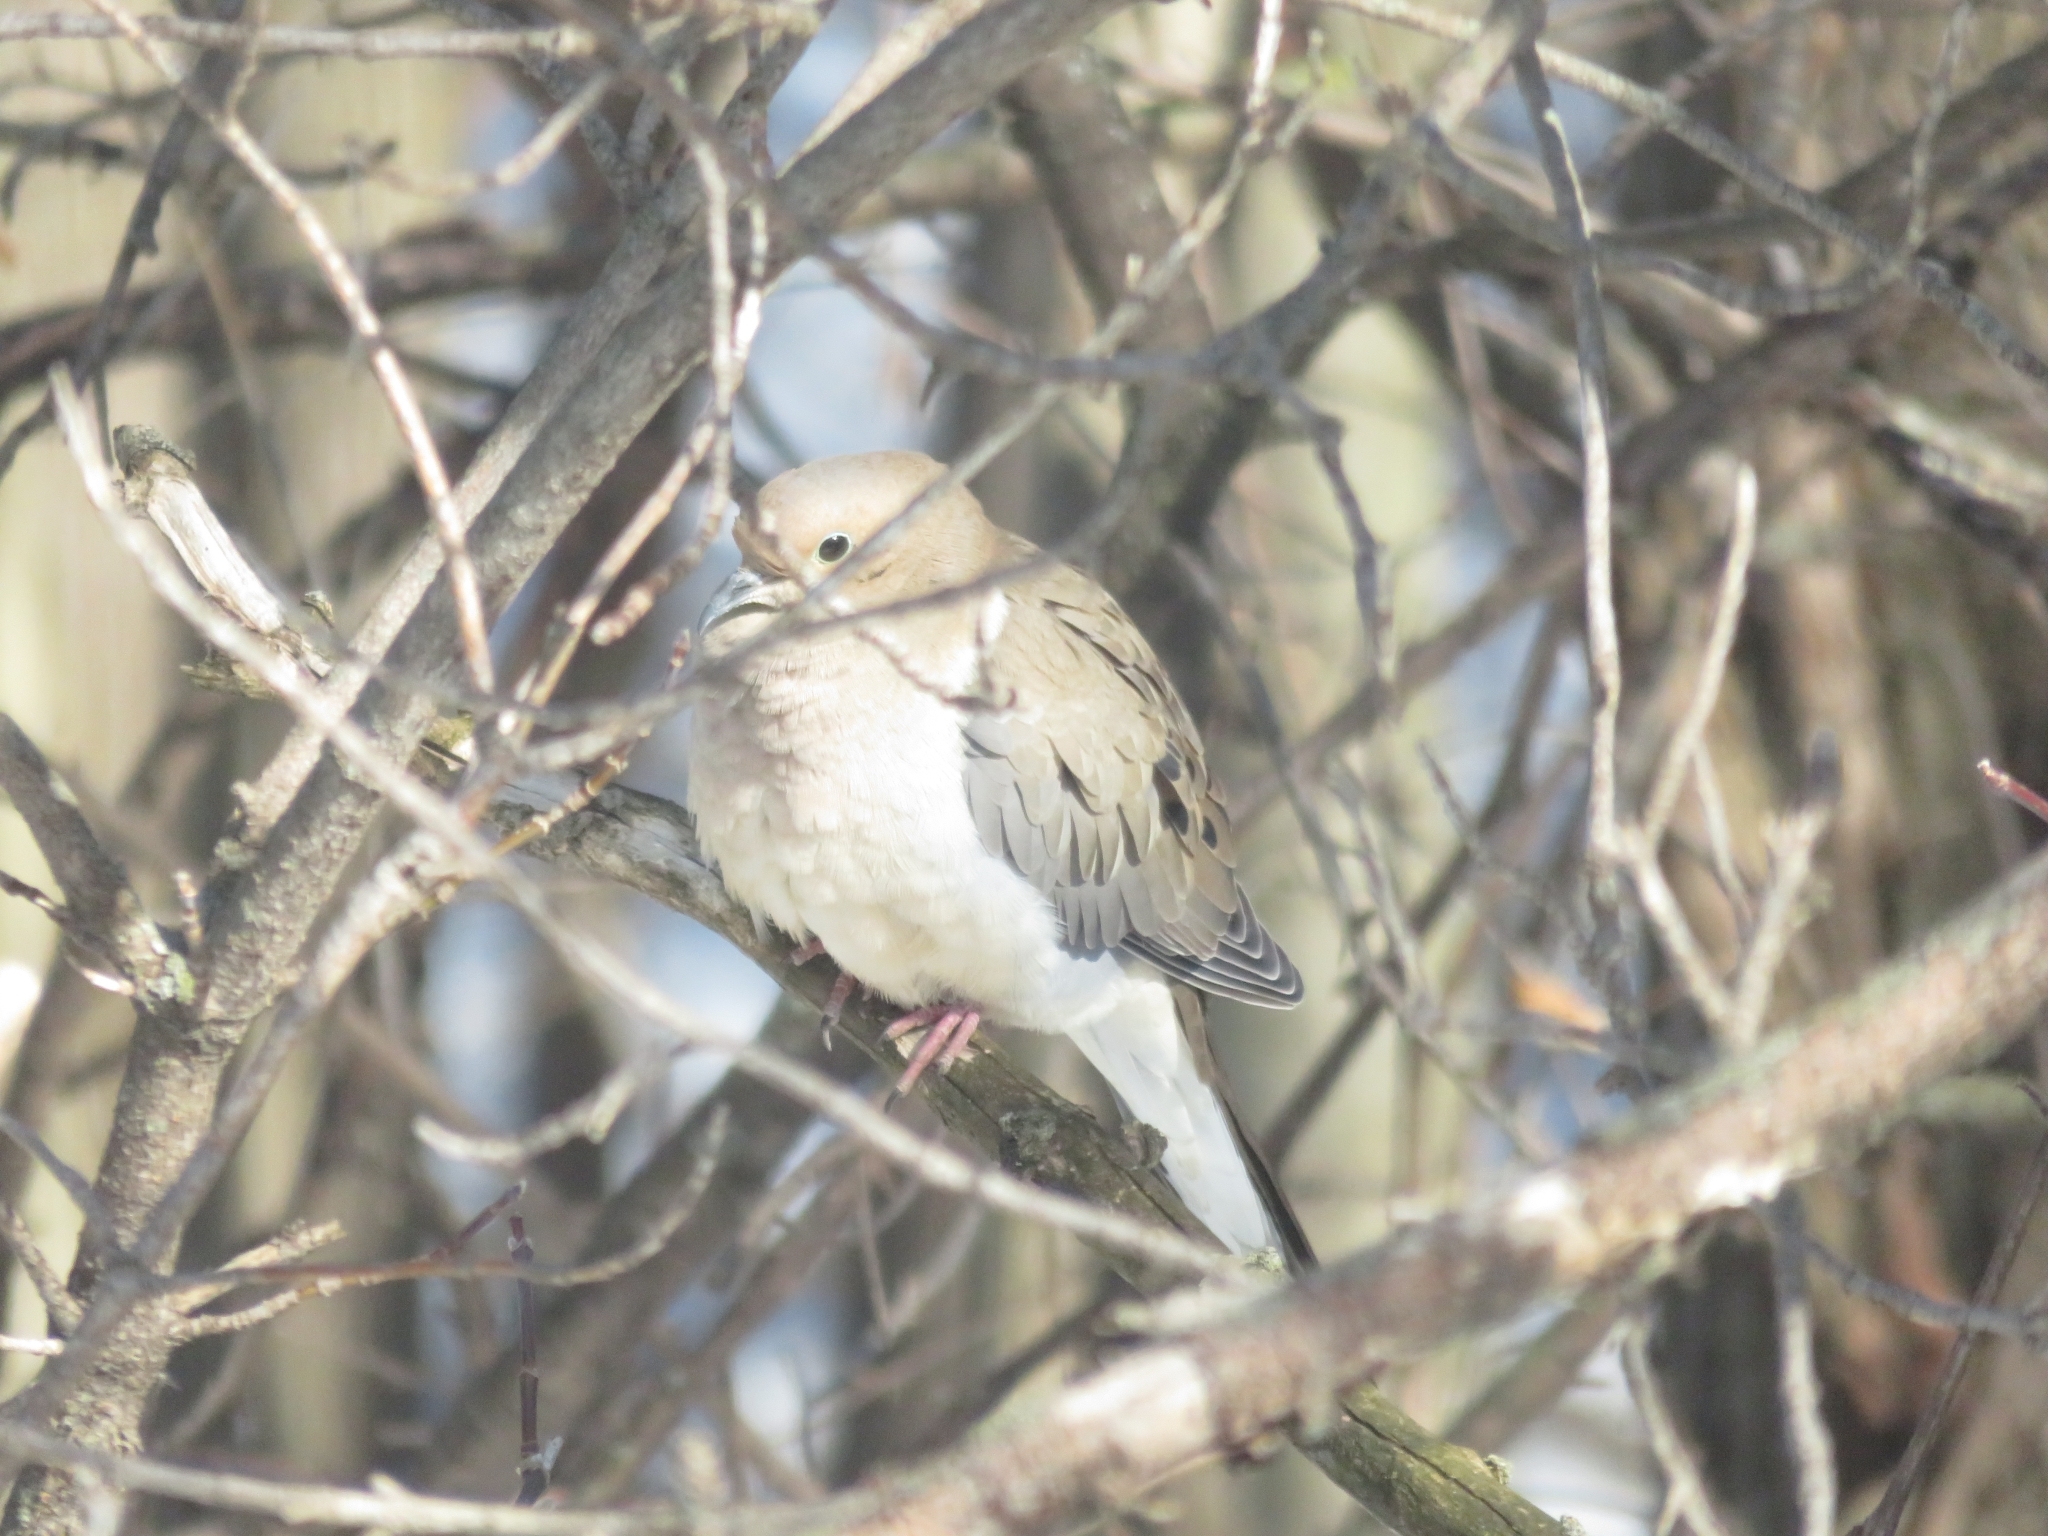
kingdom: Animalia
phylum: Chordata
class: Aves
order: Columbiformes
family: Columbidae
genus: Zenaida
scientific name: Zenaida macroura
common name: Mourning dove
